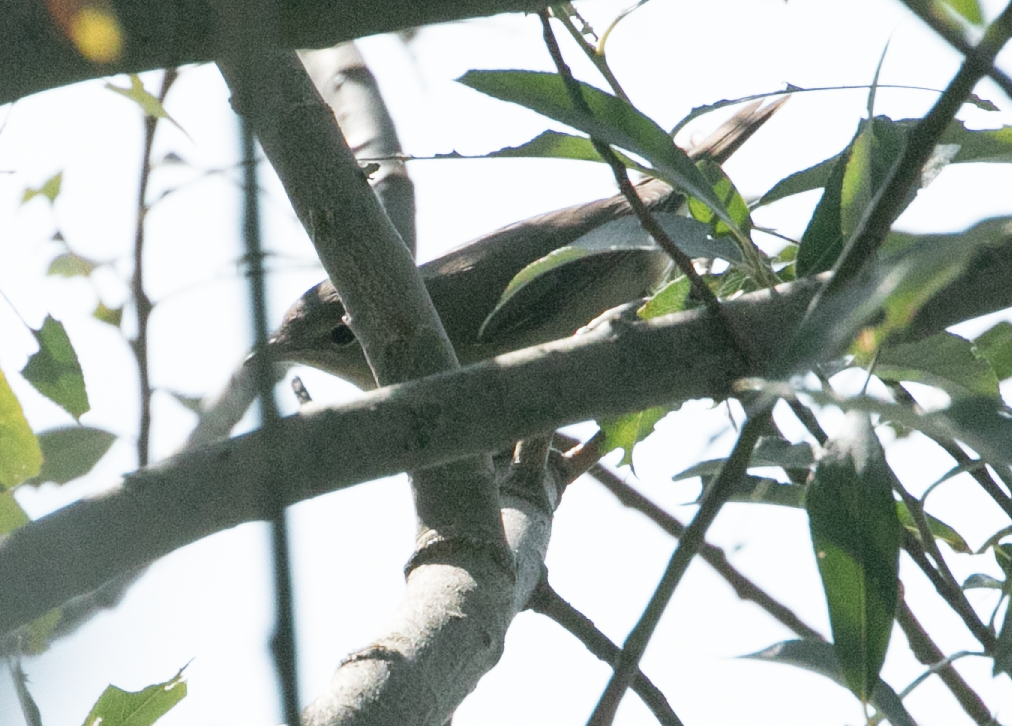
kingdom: Animalia
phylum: Chordata
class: Aves
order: Passeriformes
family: Sylviidae
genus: Sylvia
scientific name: Sylvia borin
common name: Garden warbler
